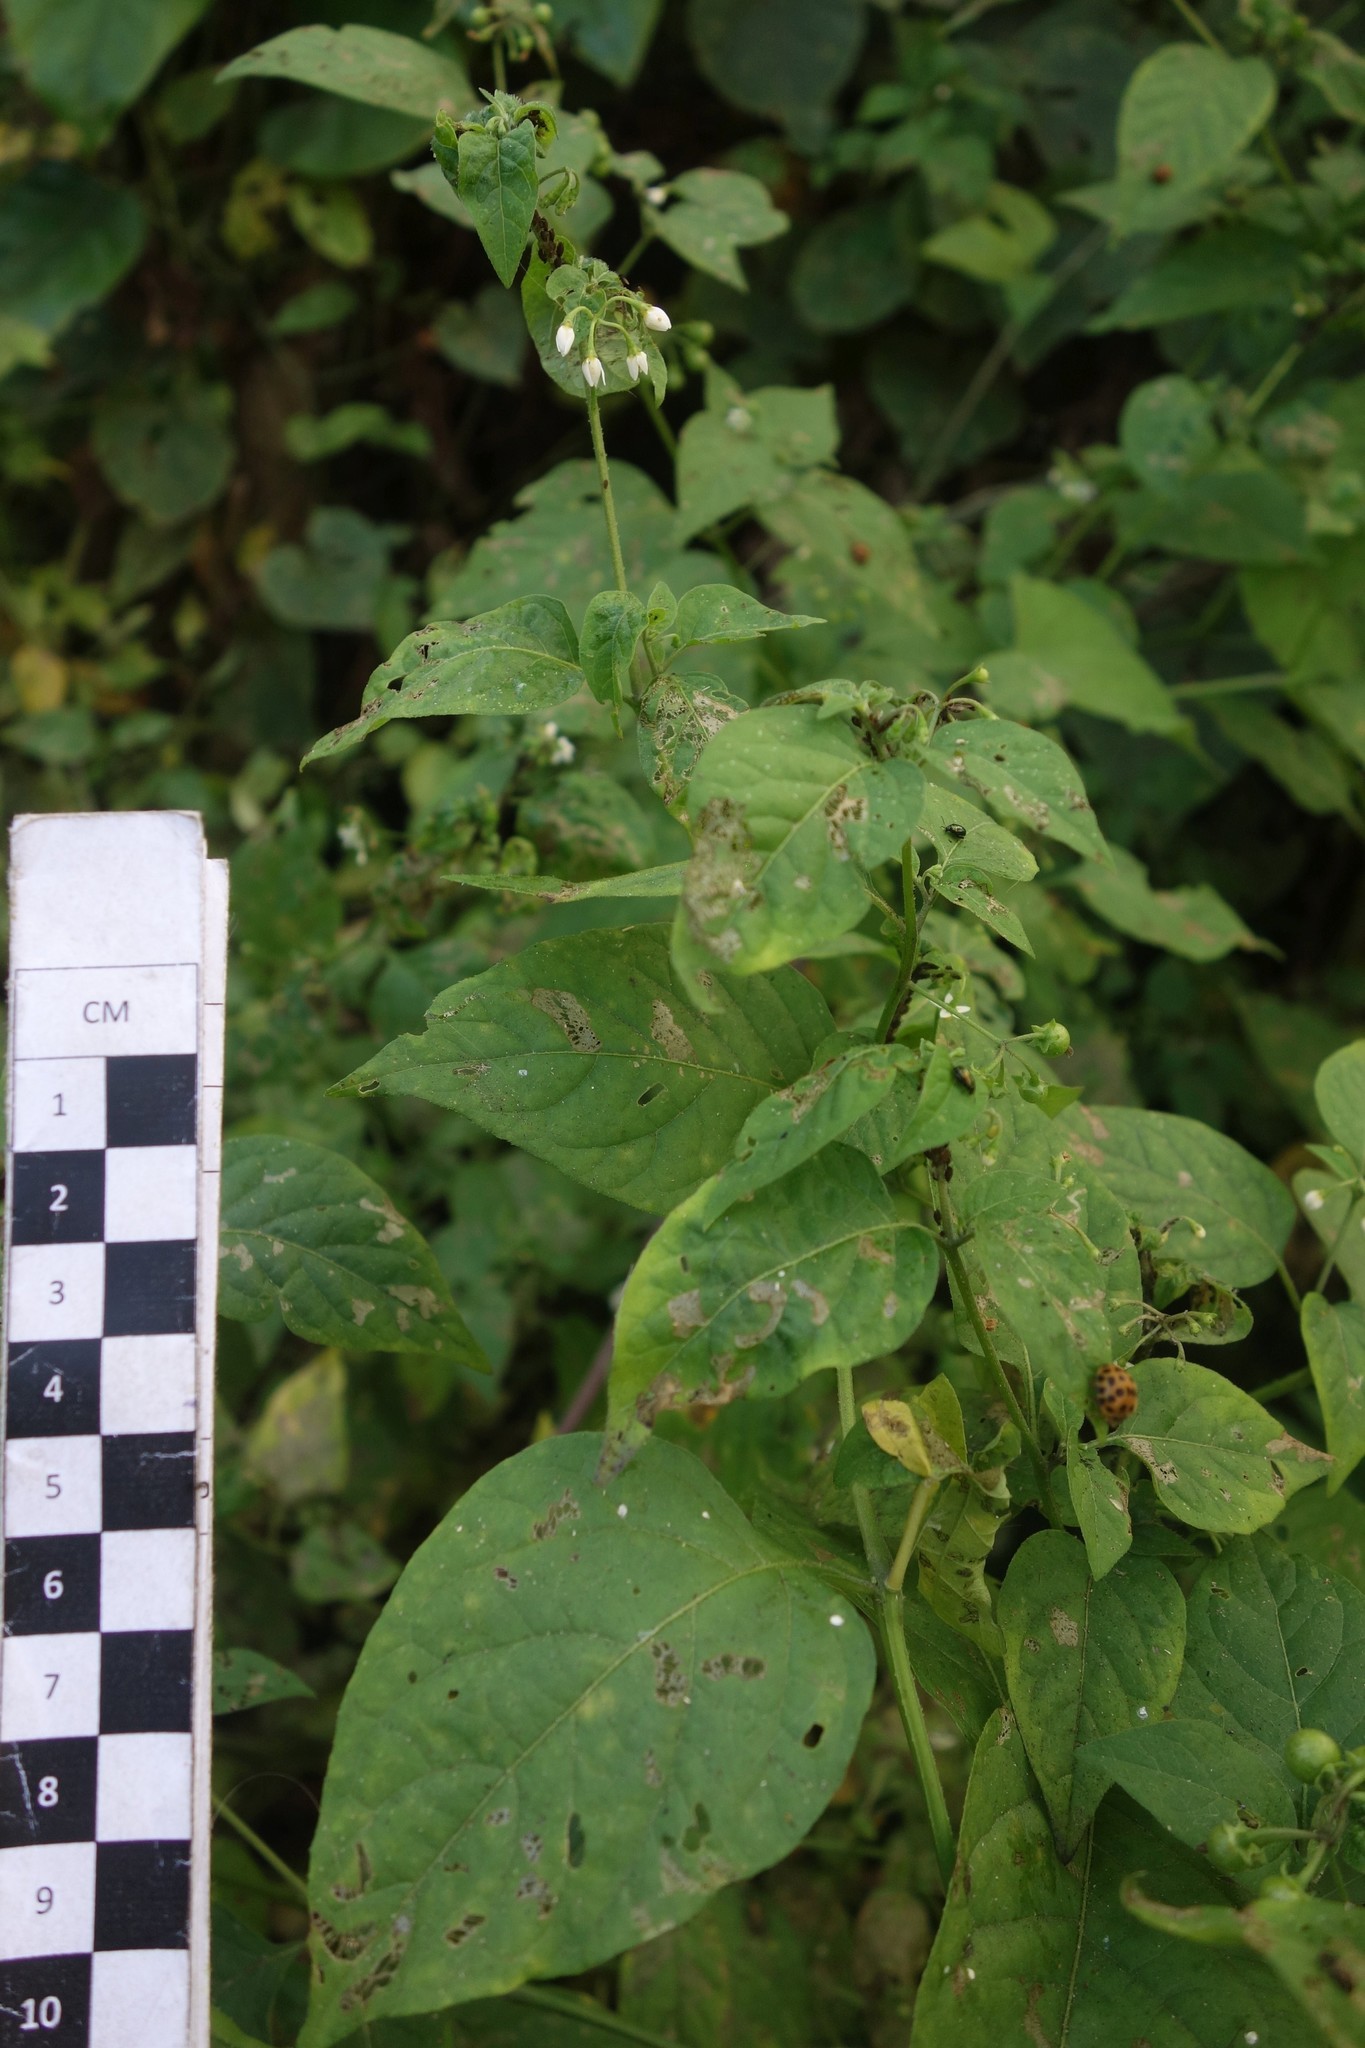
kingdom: Plantae
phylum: Tracheophyta
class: Magnoliopsida
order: Solanales
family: Solanaceae
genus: Solanum
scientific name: Solanum americanum
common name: American black nightshade
